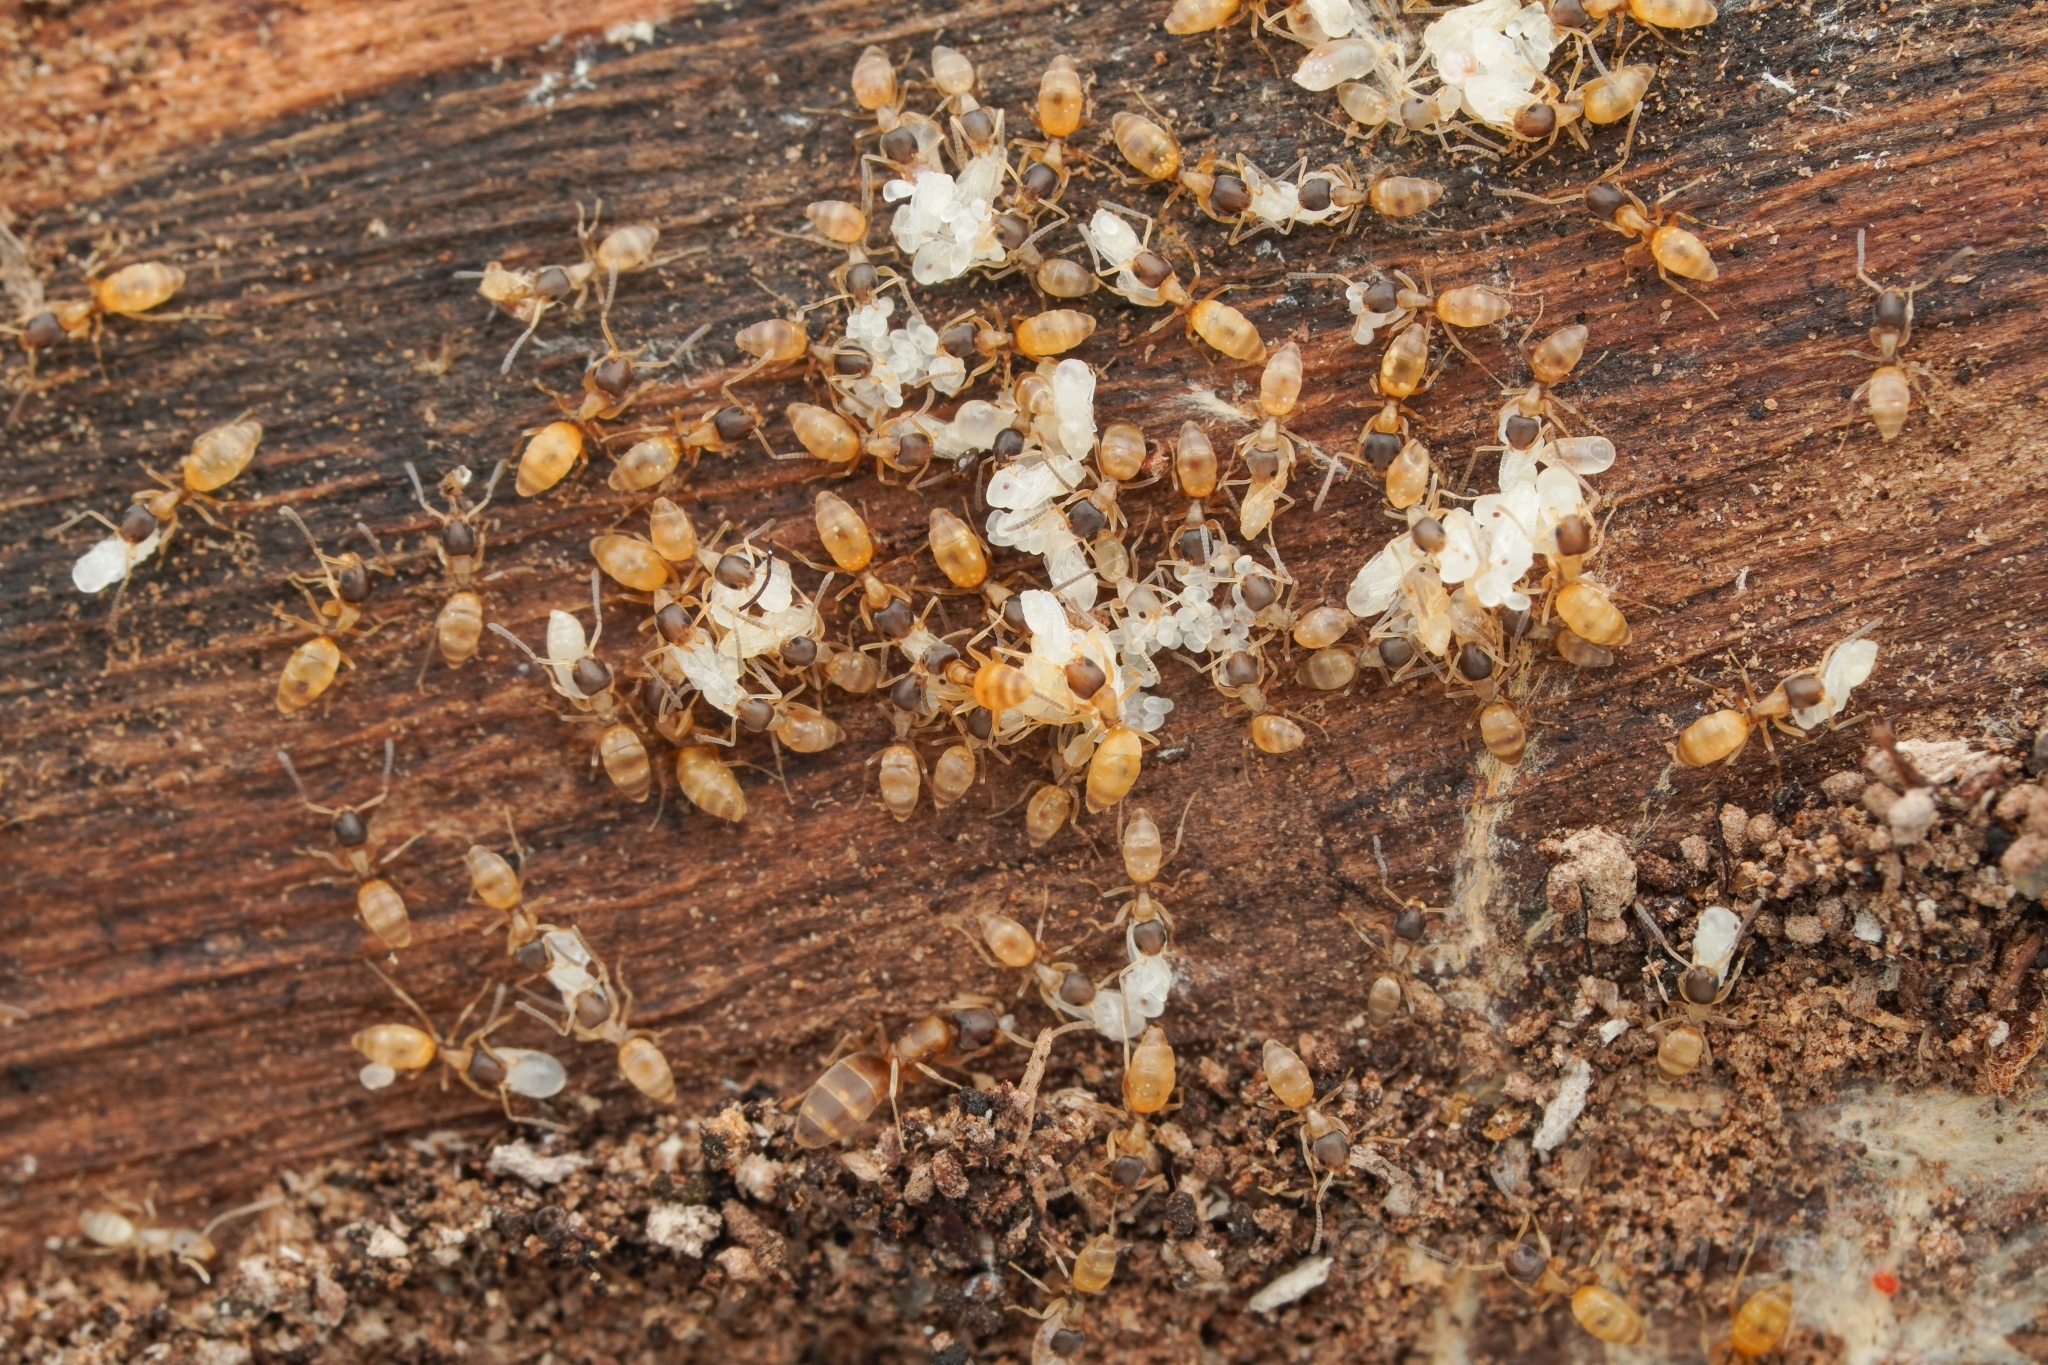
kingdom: Animalia
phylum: Arthropoda
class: Insecta
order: Hymenoptera
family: Formicidae
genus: Tapinoma
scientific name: Tapinoma melanocephalum
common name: Ghost ant
